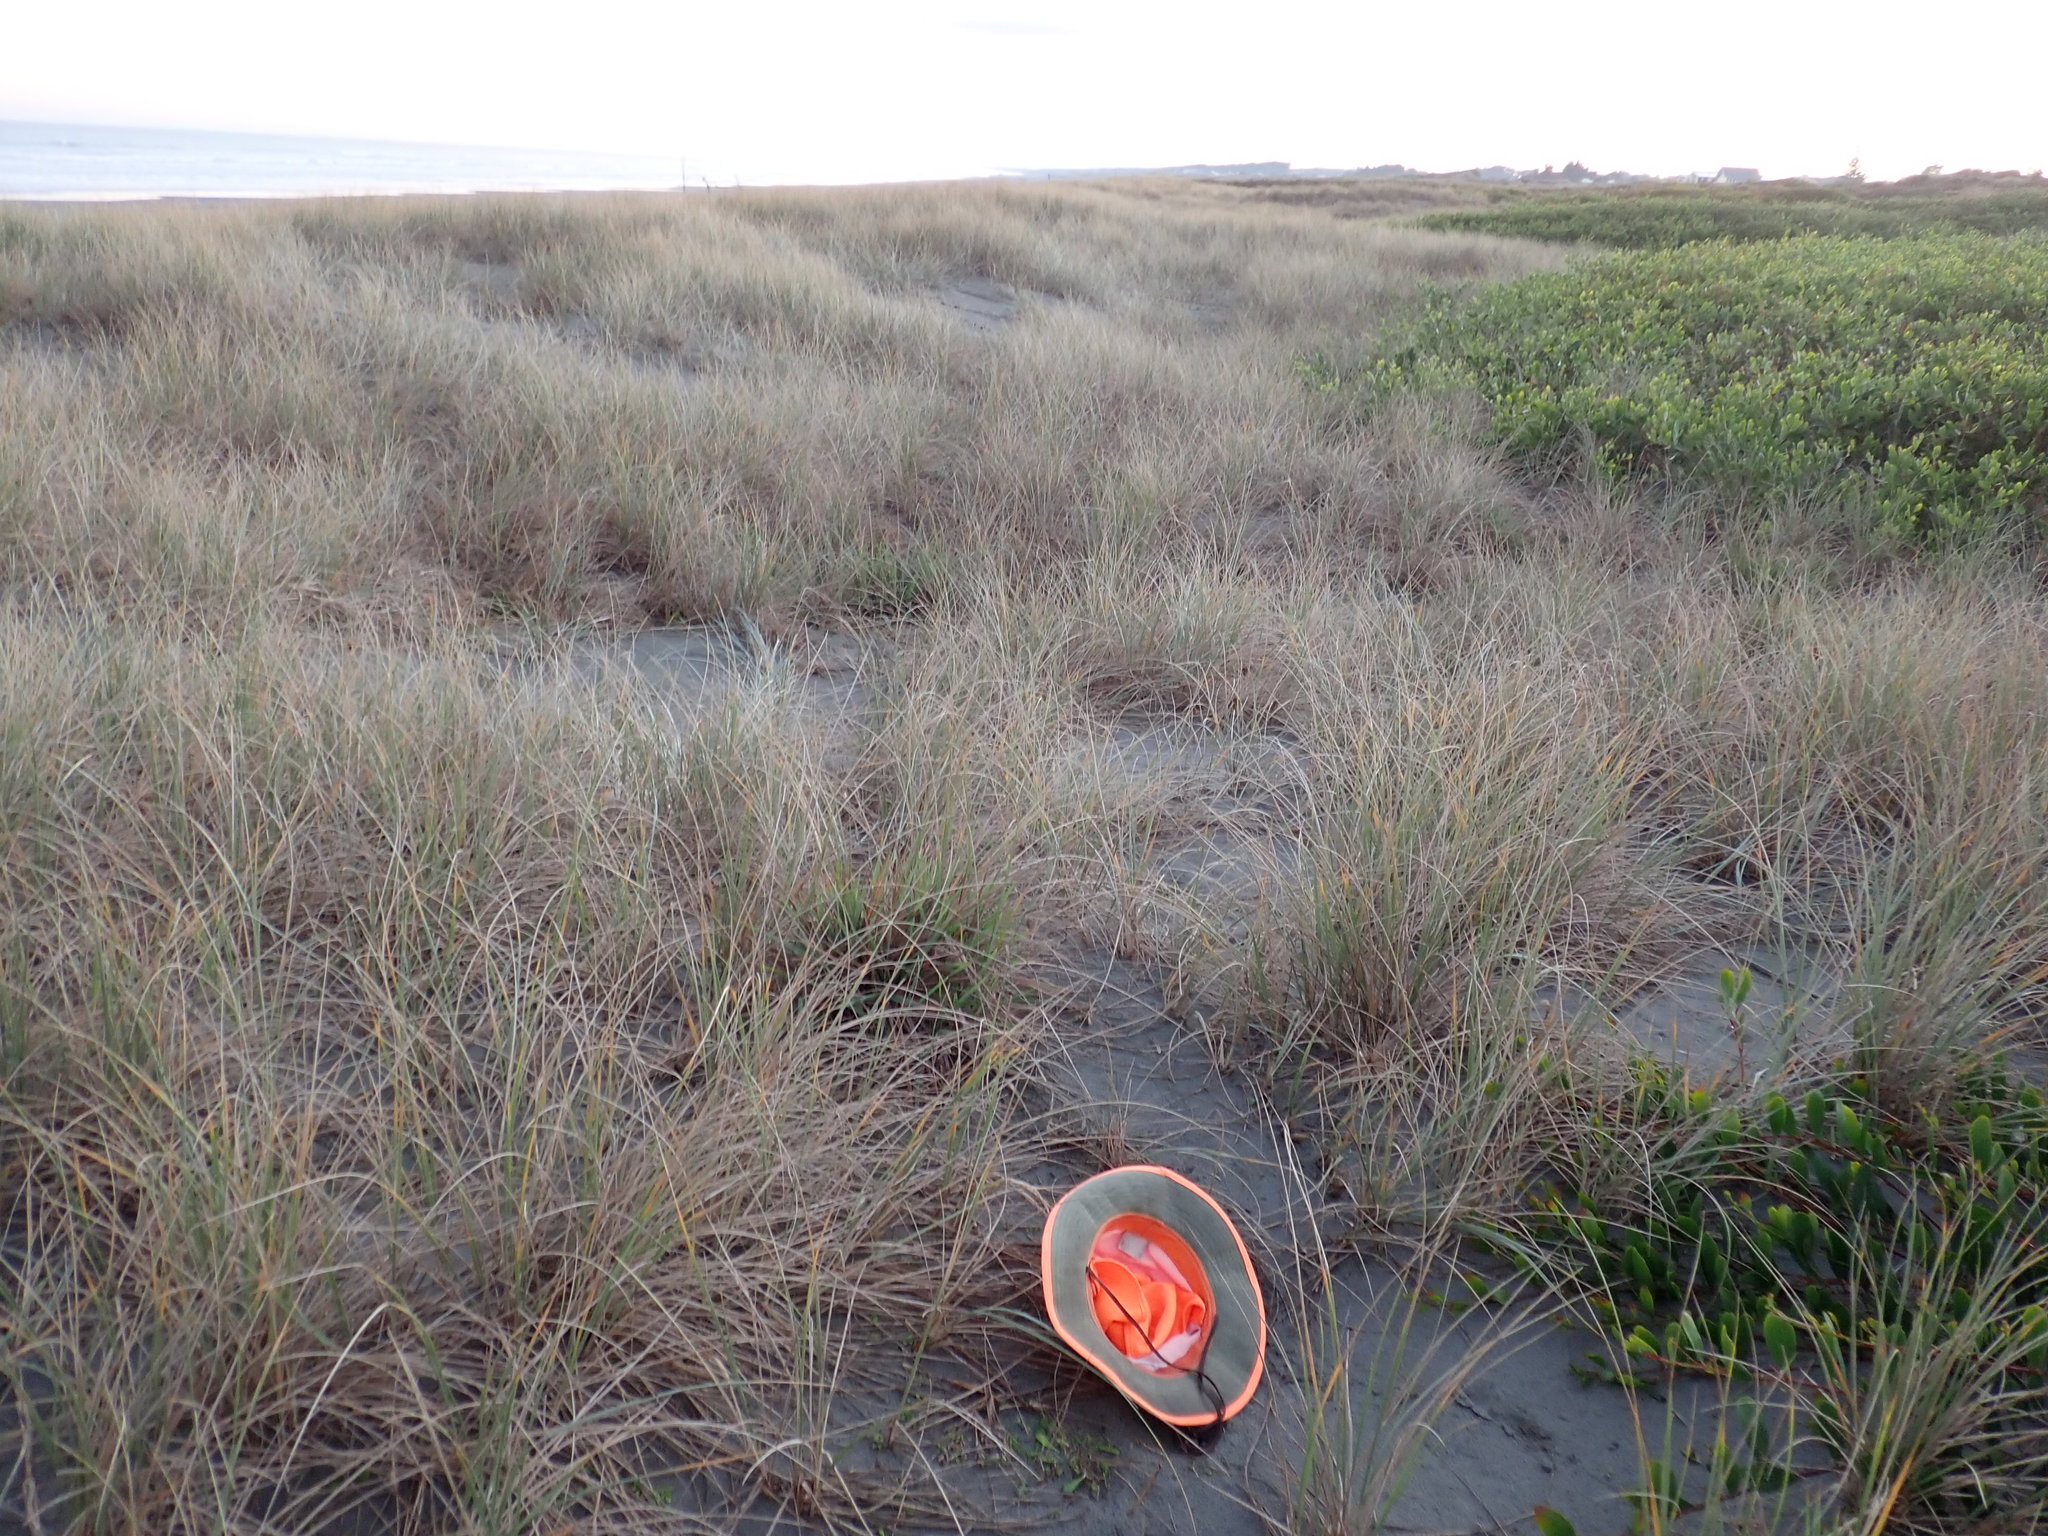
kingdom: Fungi
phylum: Basidiomycota
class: Agaricomycetes
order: Phallales
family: Phallaceae
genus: Ileodictyon
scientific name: Ileodictyon cibarium
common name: Basket fungus
